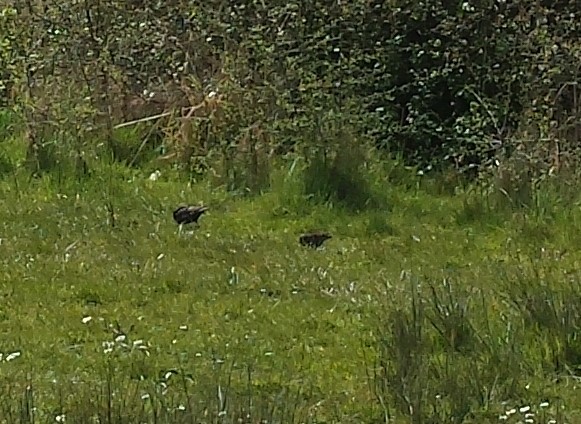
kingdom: Animalia
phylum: Chordata
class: Aves
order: Passeriformes
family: Sturnidae
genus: Sturnus
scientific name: Sturnus vulgaris
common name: Common starling
